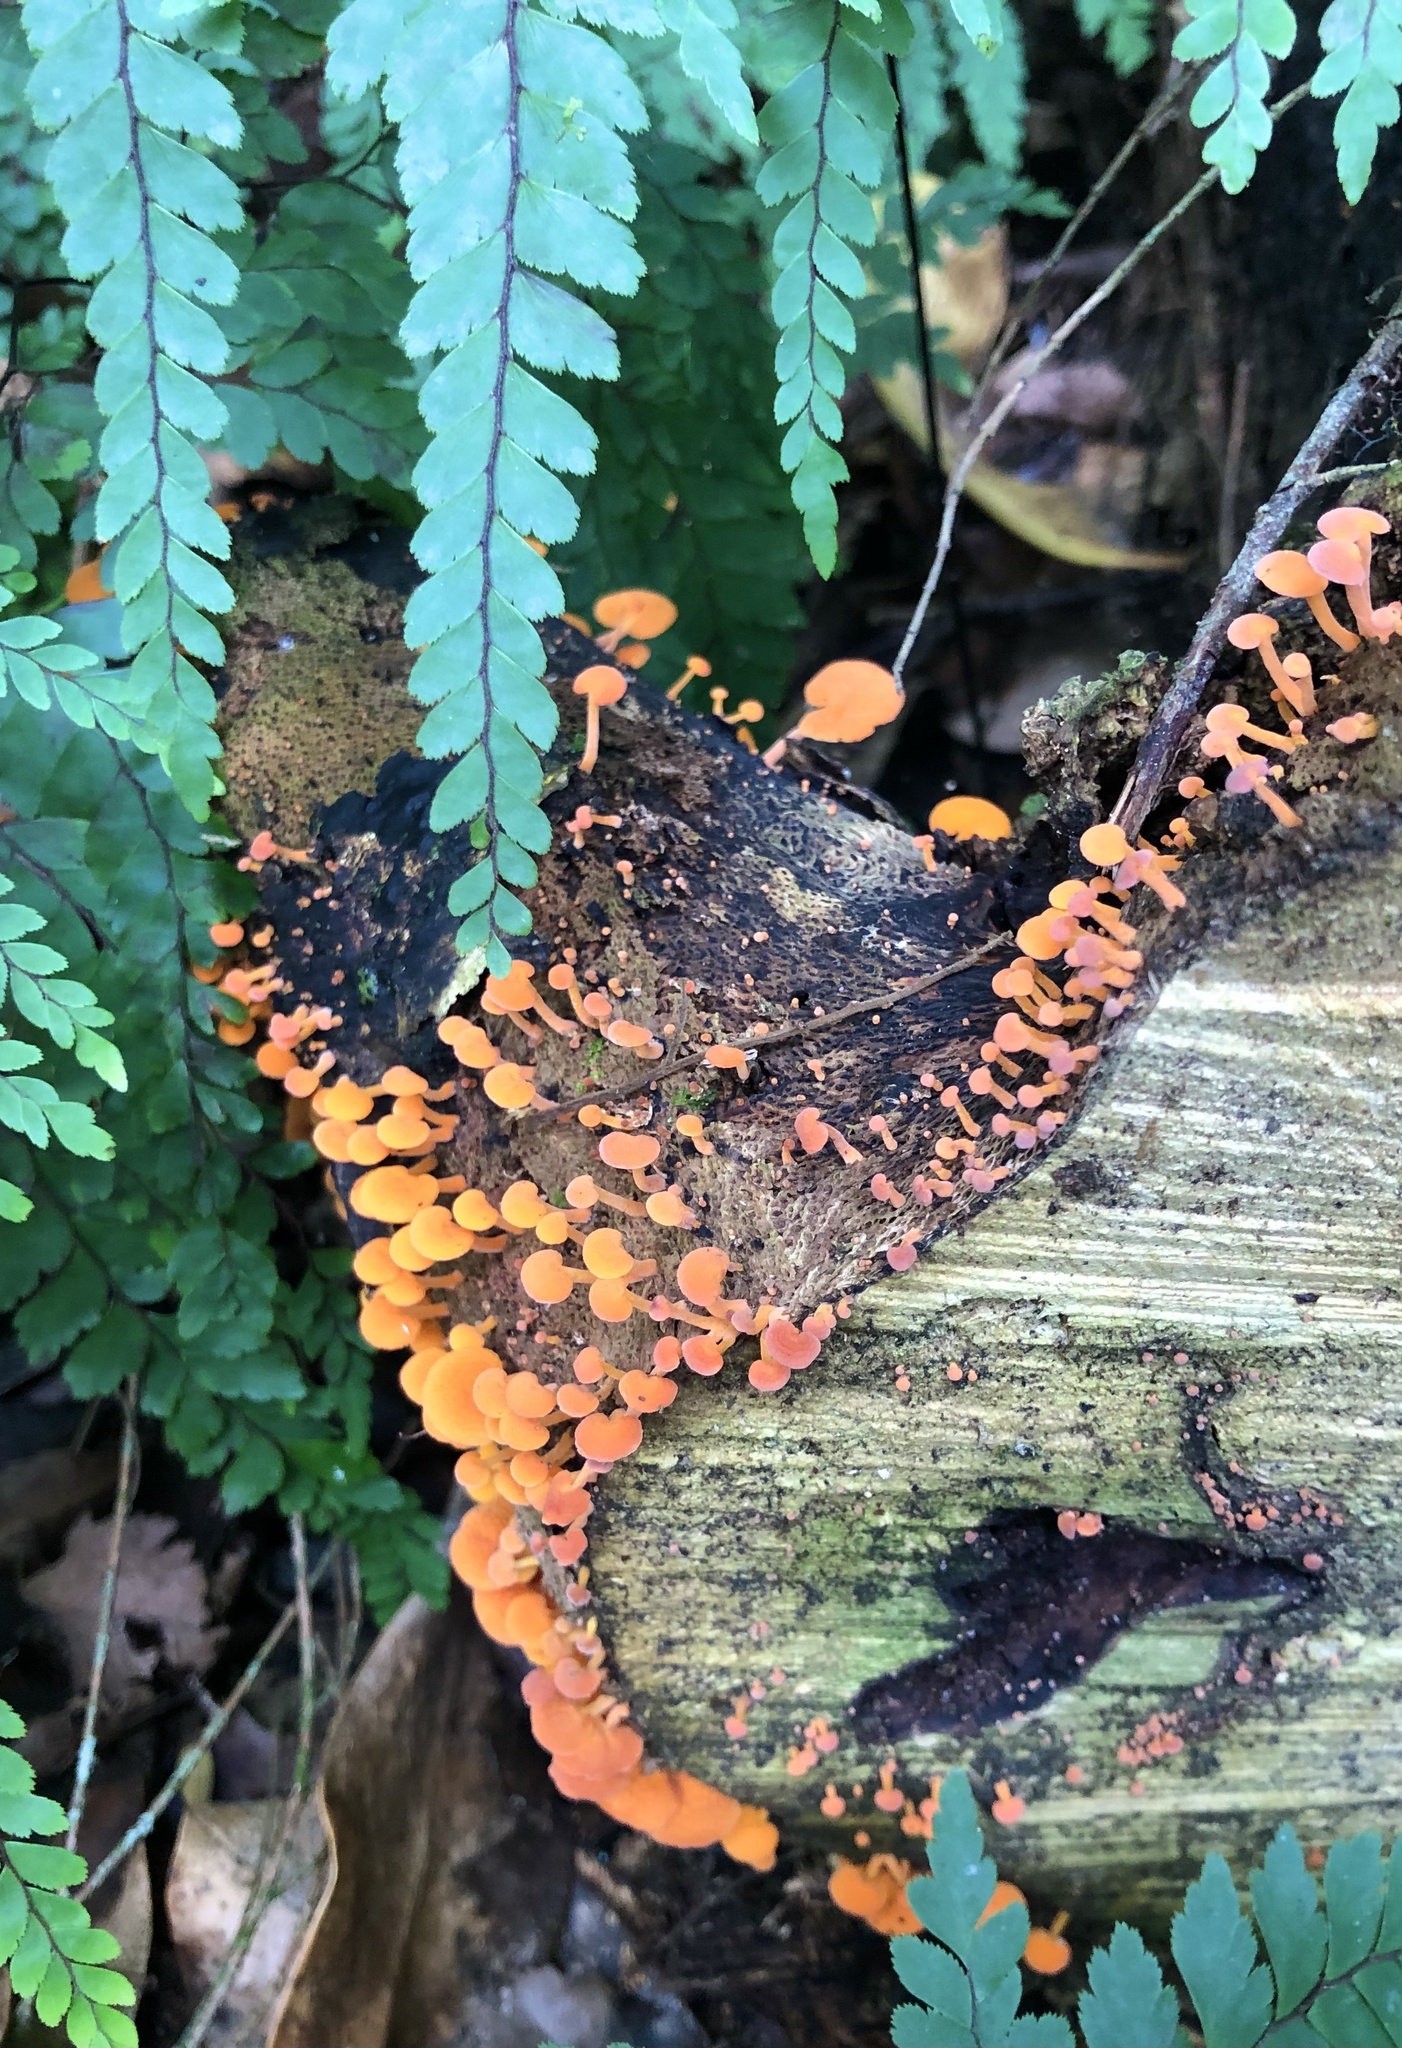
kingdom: Fungi
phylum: Basidiomycota
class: Agaricomycetes
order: Agaricales
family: Mycenaceae
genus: Favolaschia
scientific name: Favolaschia claudopus
